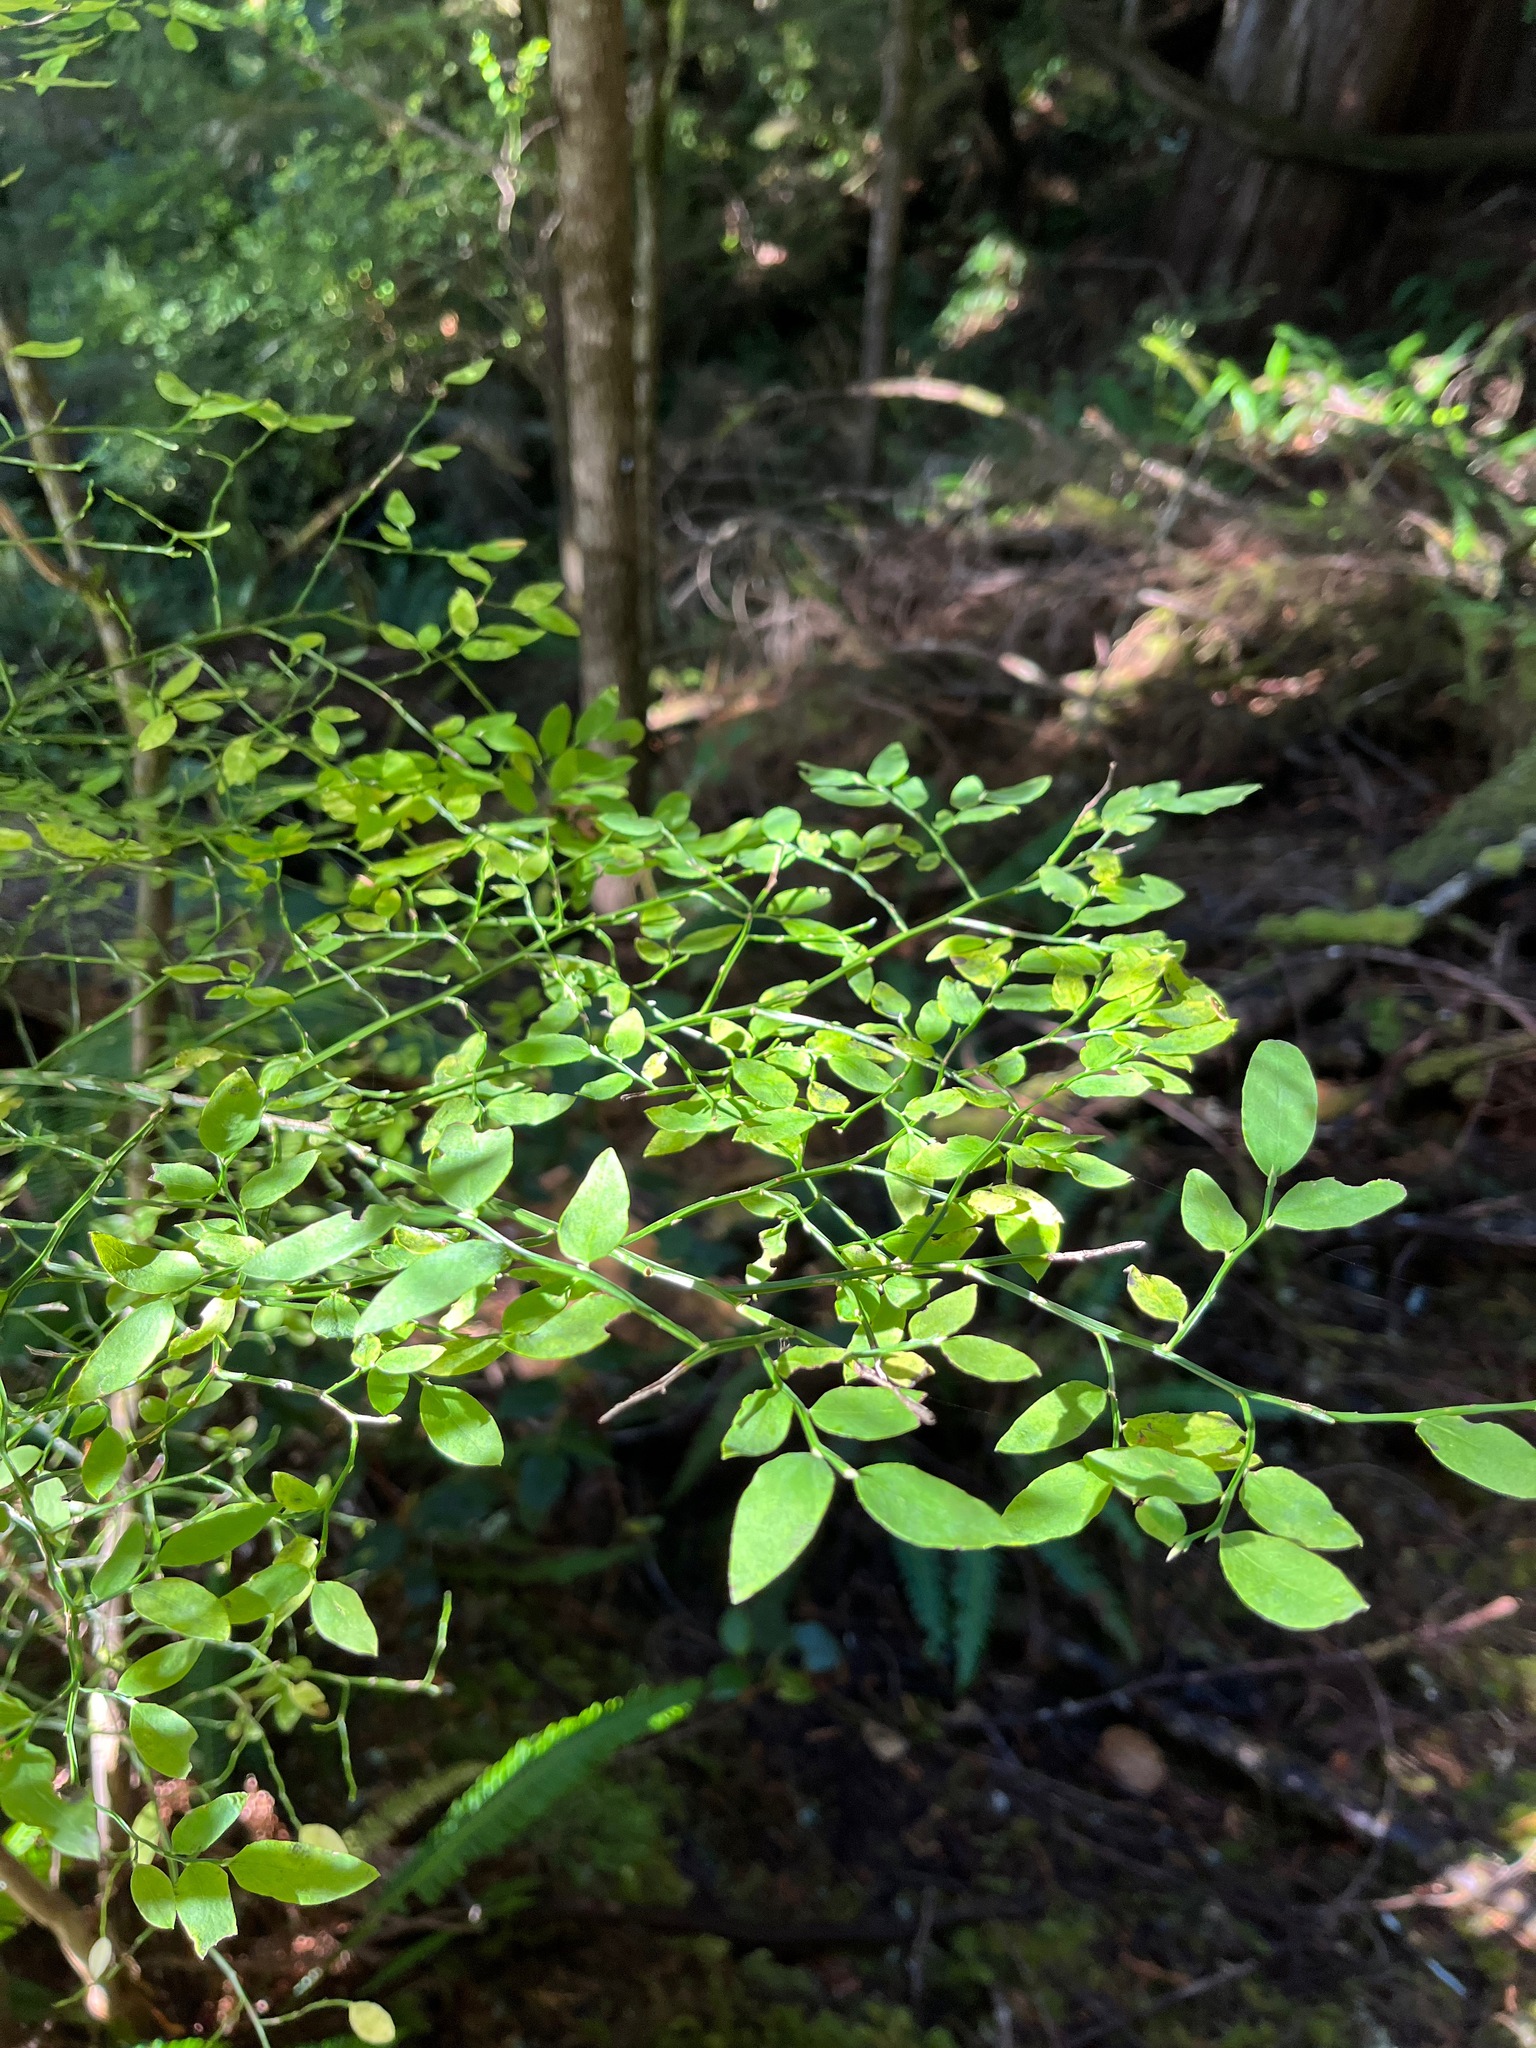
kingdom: Plantae
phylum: Tracheophyta
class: Magnoliopsida
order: Ericales
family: Ericaceae
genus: Vaccinium
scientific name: Vaccinium parvifolium
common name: Red-huckleberry
